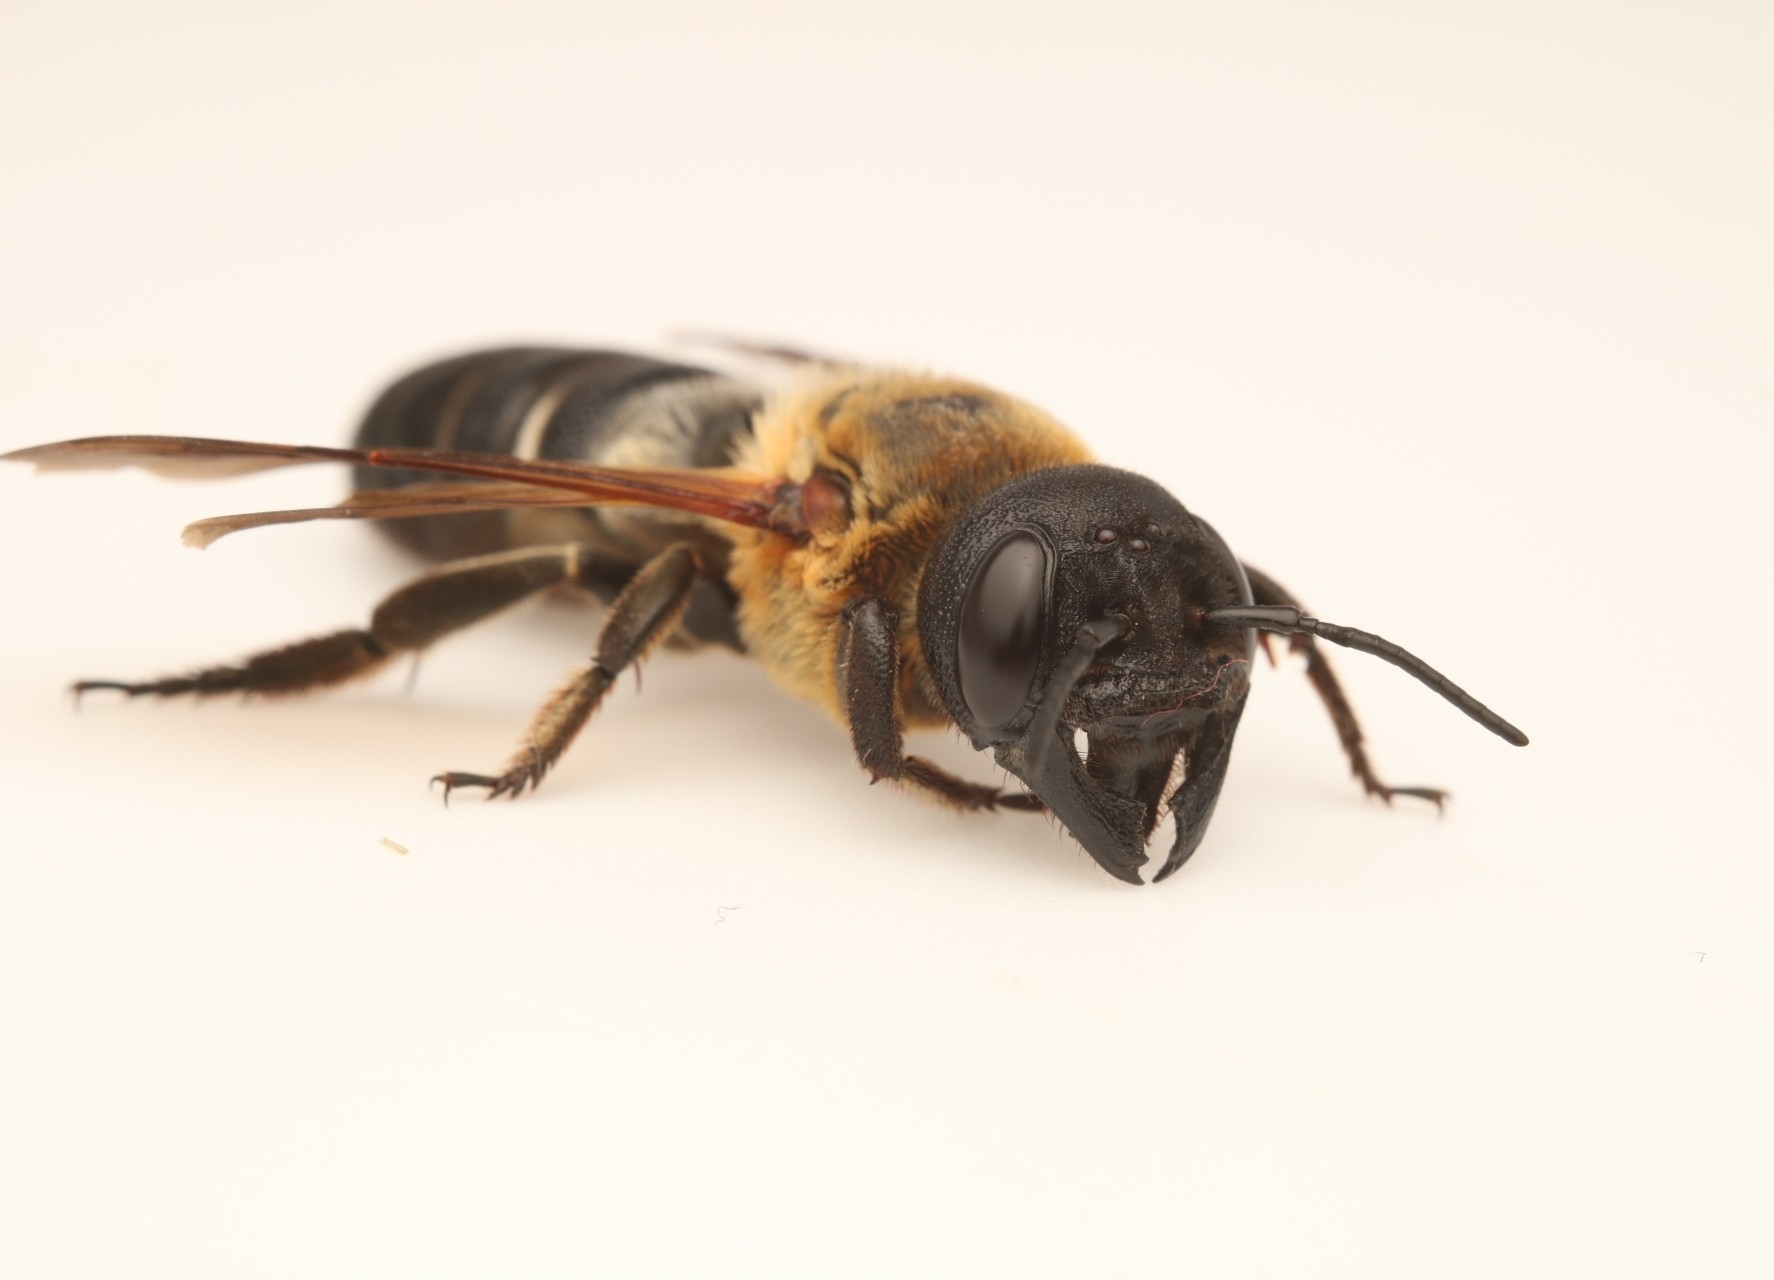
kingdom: Animalia
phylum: Arthropoda
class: Insecta
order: Hymenoptera
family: Megachilidae
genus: Megachile
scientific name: Megachile sculpturalis
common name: Sculptured resin bee
